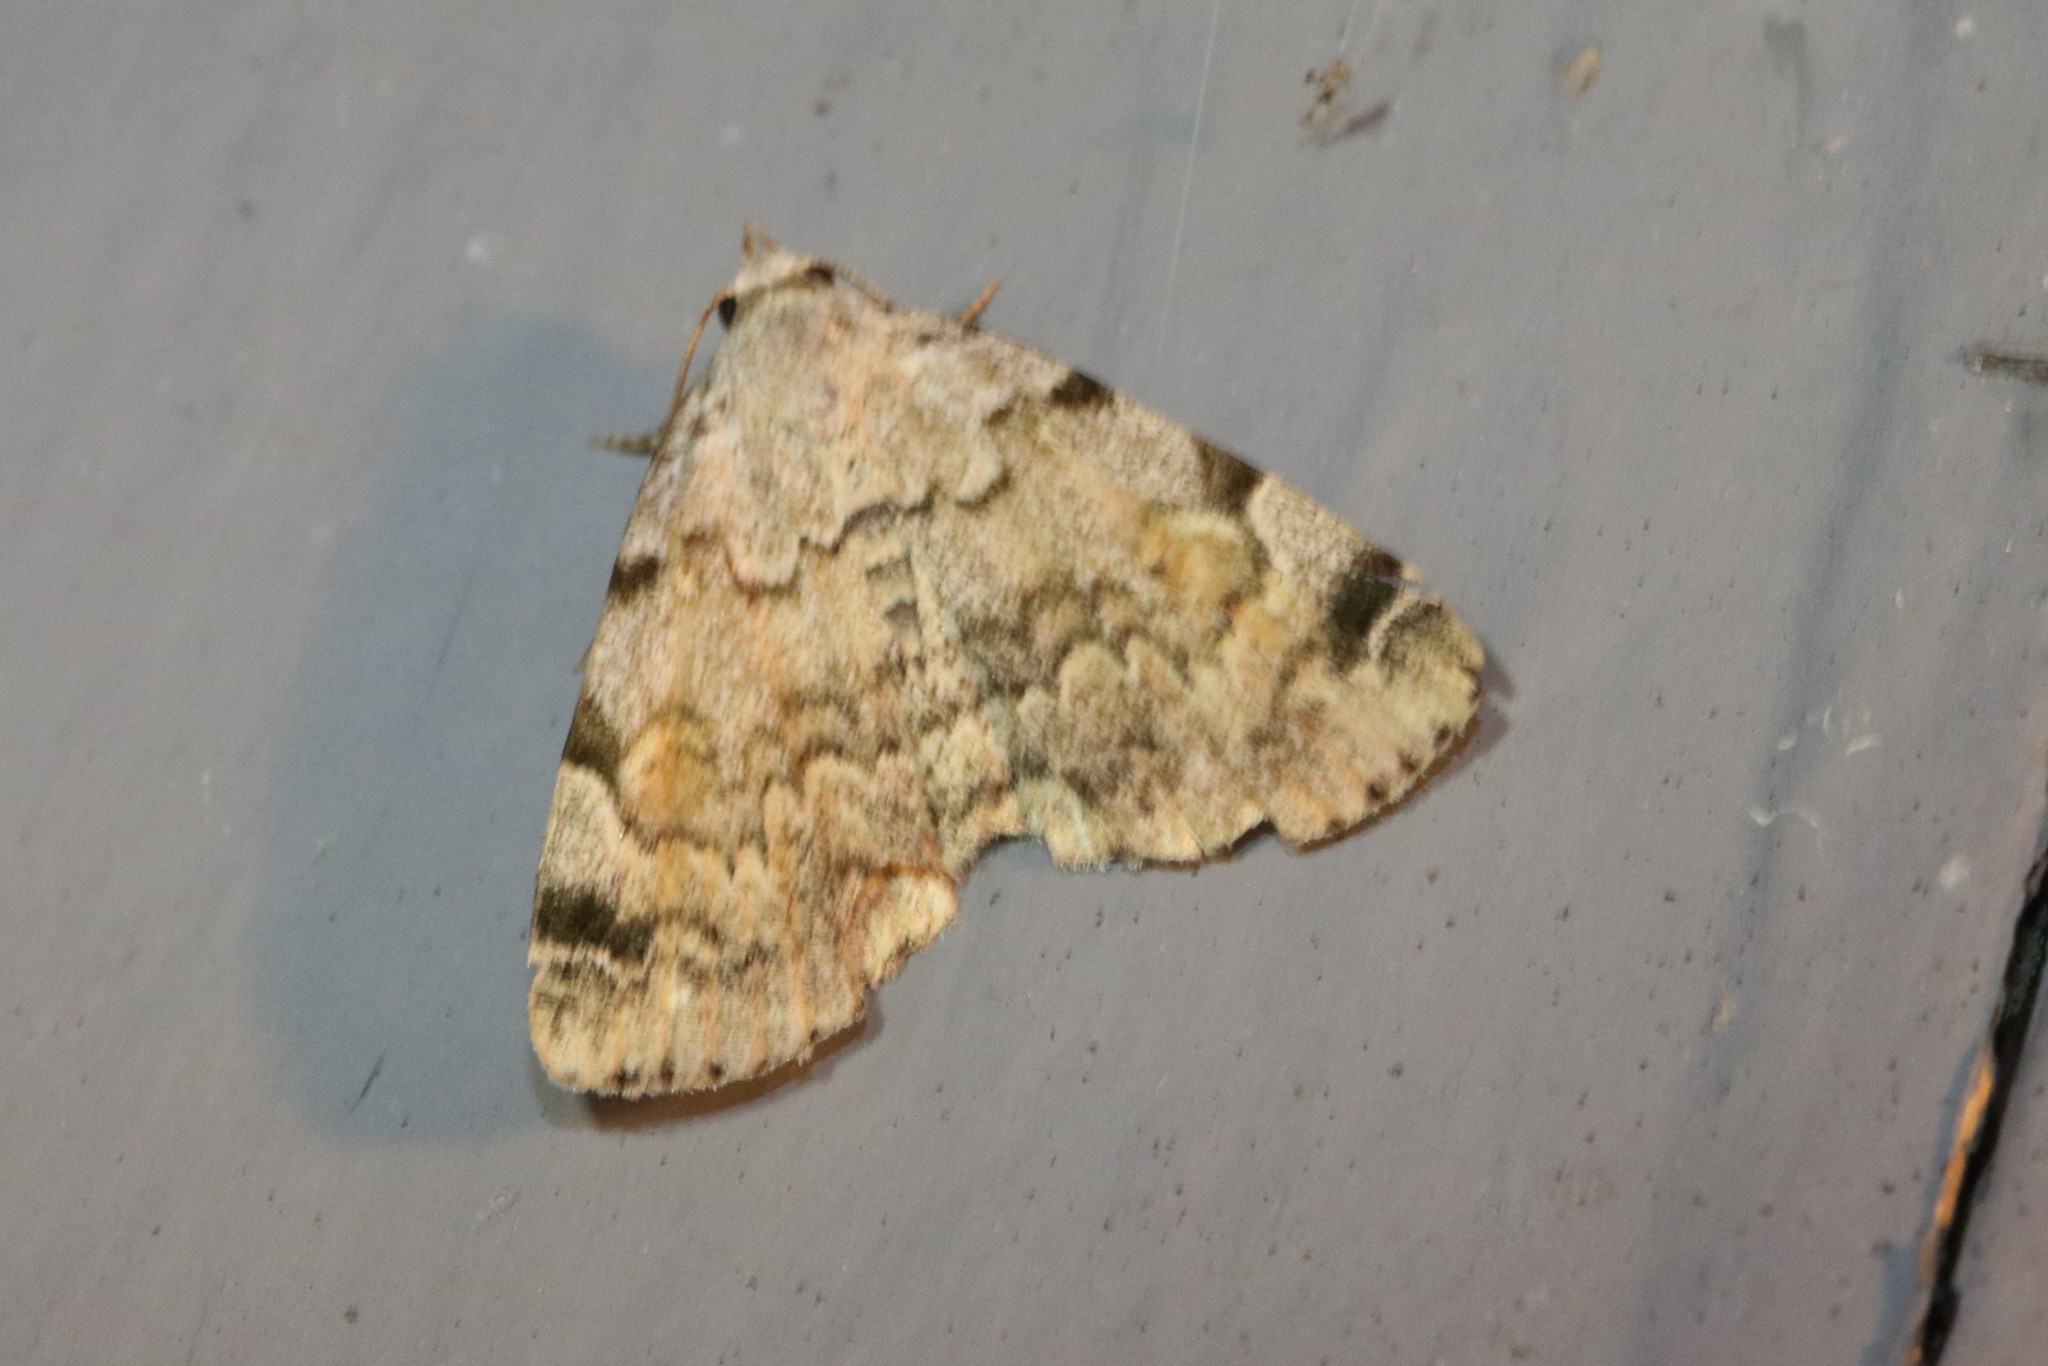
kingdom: Animalia
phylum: Arthropoda
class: Insecta
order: Lepidoptera
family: Erebidae
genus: Idia
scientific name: Idia americalis
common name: American idia moth
